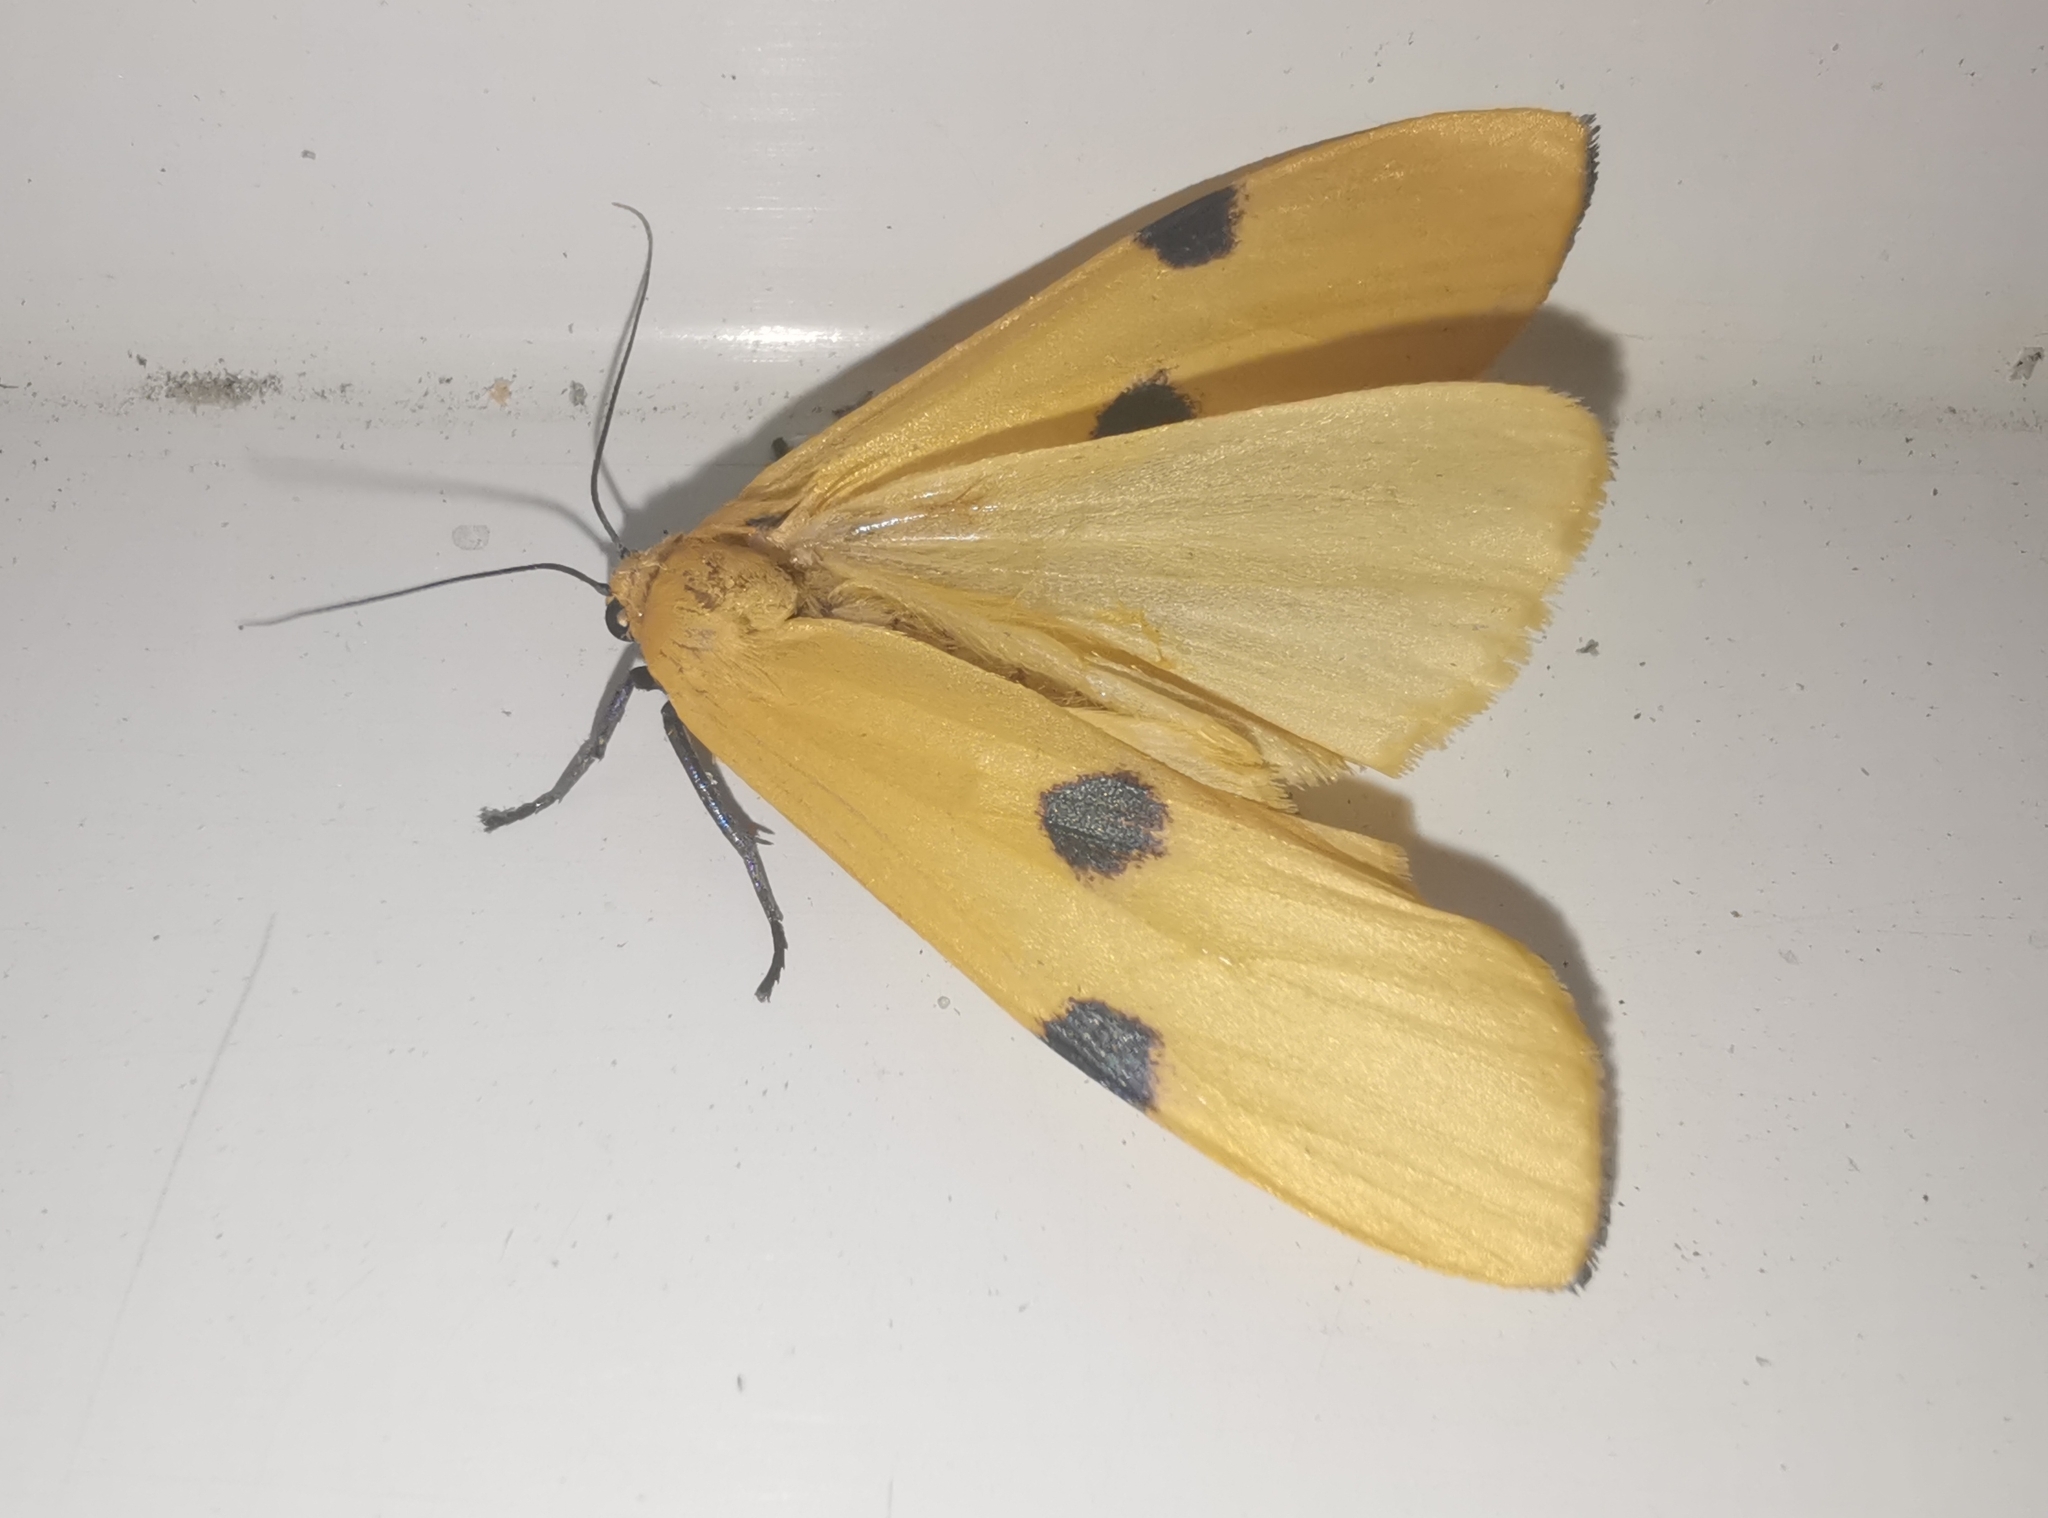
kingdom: Animalia
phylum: Arthropoda
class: Insecta
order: Lepidoptera
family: Erebidae
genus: Lithosia
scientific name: Lithosia quadra
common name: Four-spotted footman
